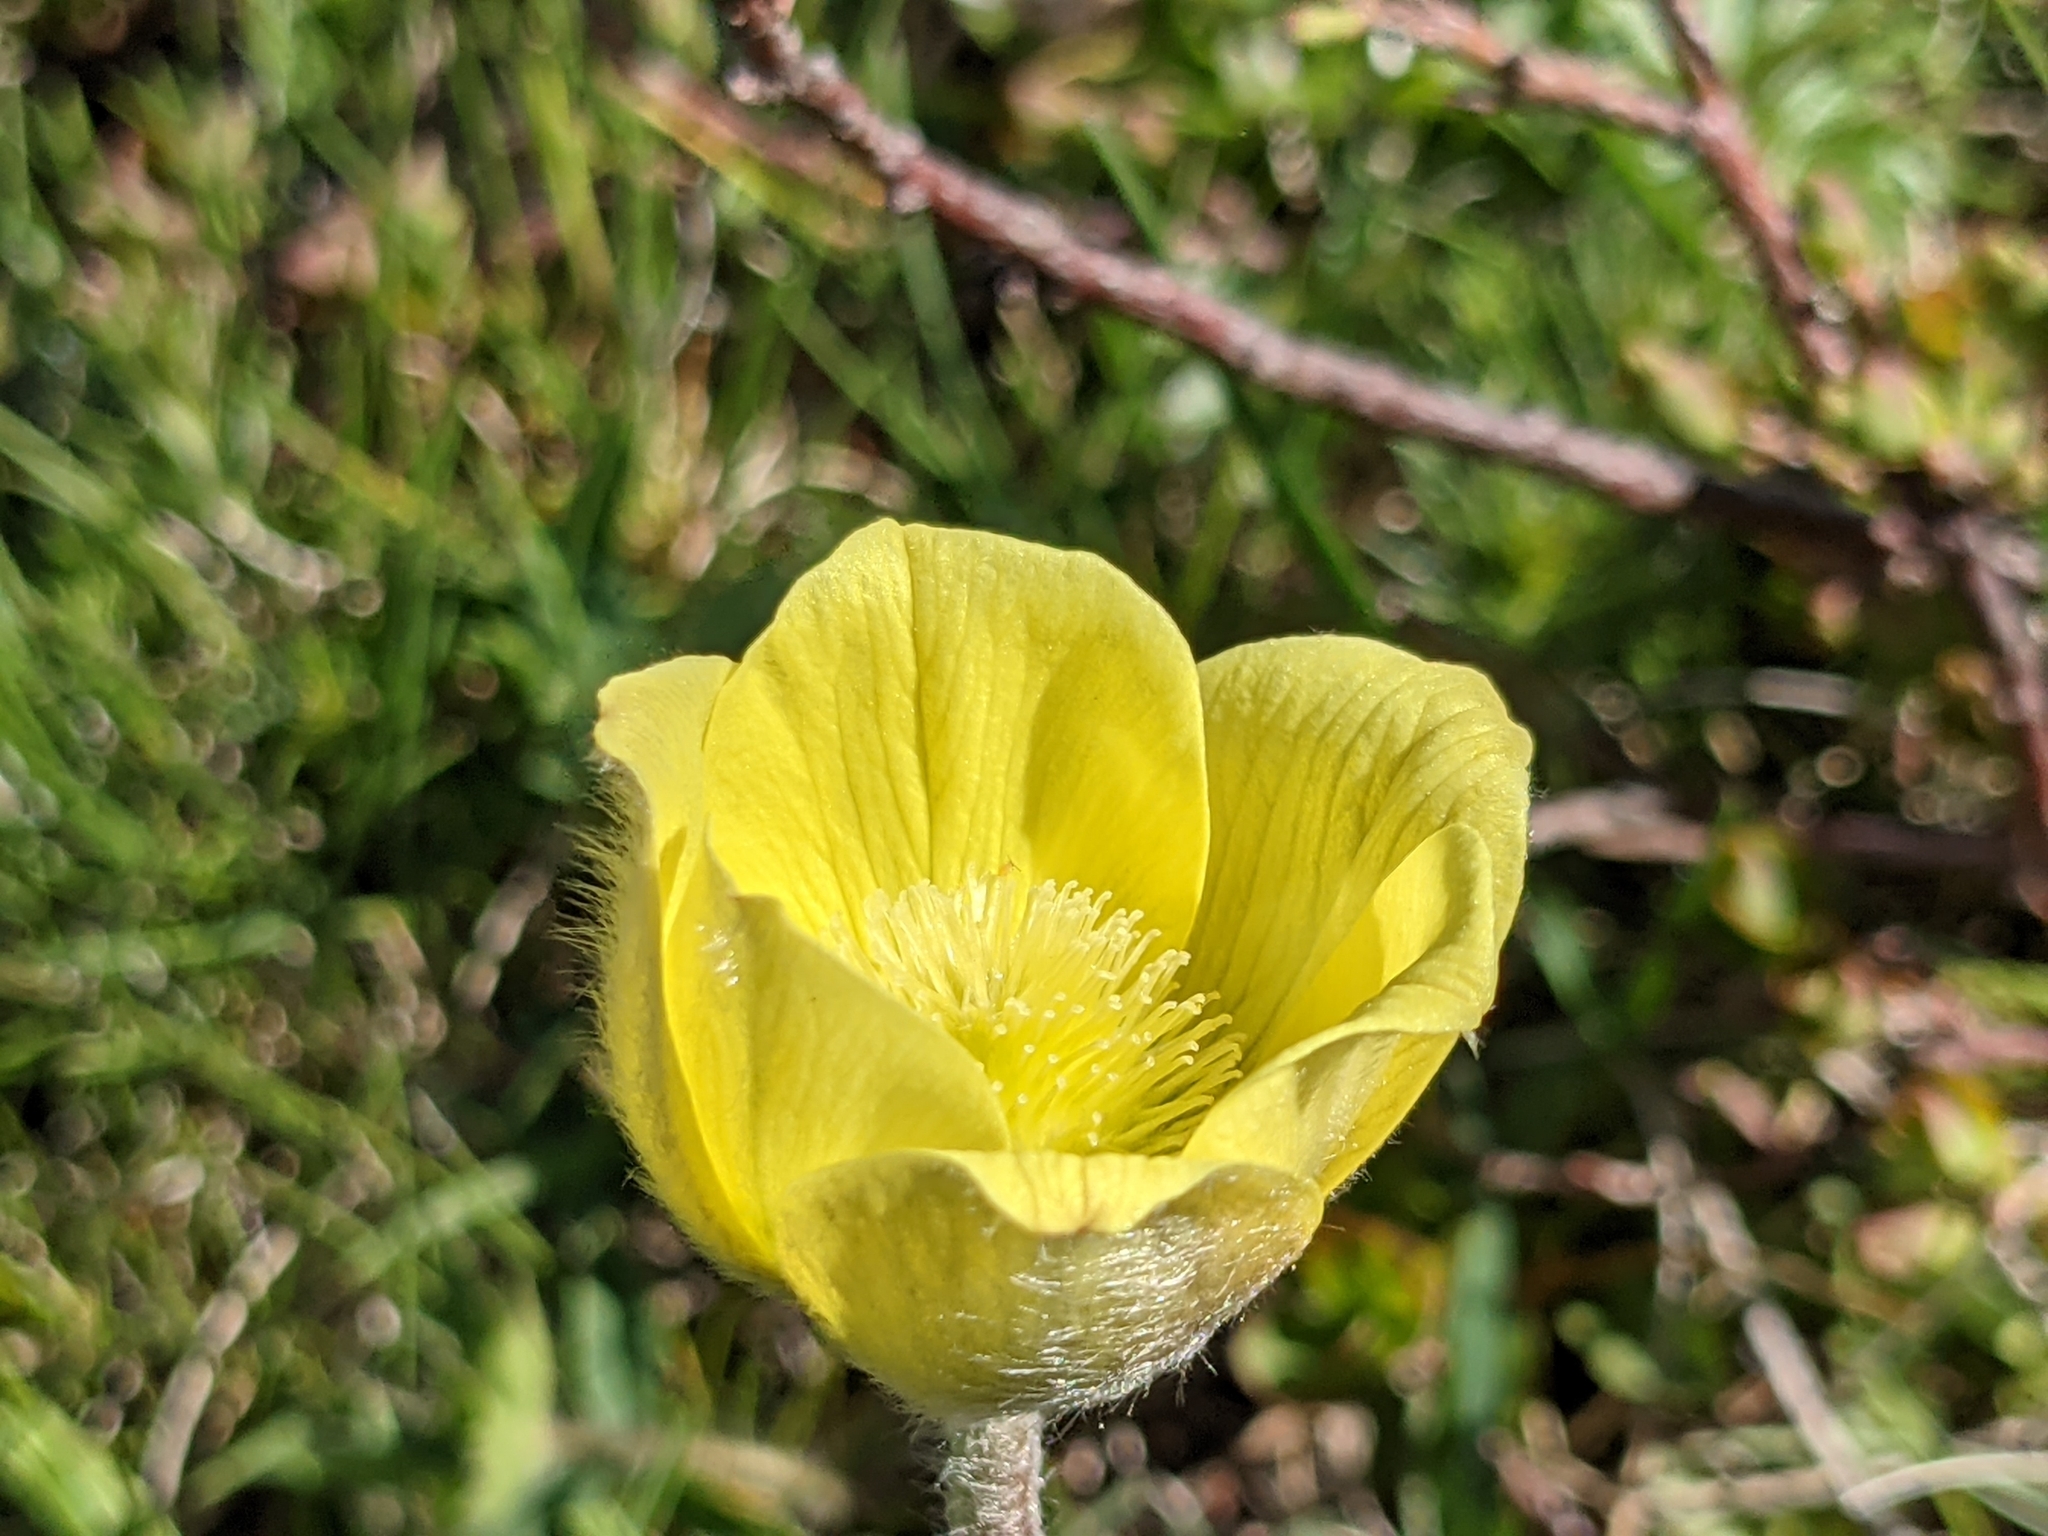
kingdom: Plantae
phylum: Tracheophyta
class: Magnoliopsida
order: Ranunculales
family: Ranunculaceae
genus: Pulsatilla
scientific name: Pulsatilla alpina
